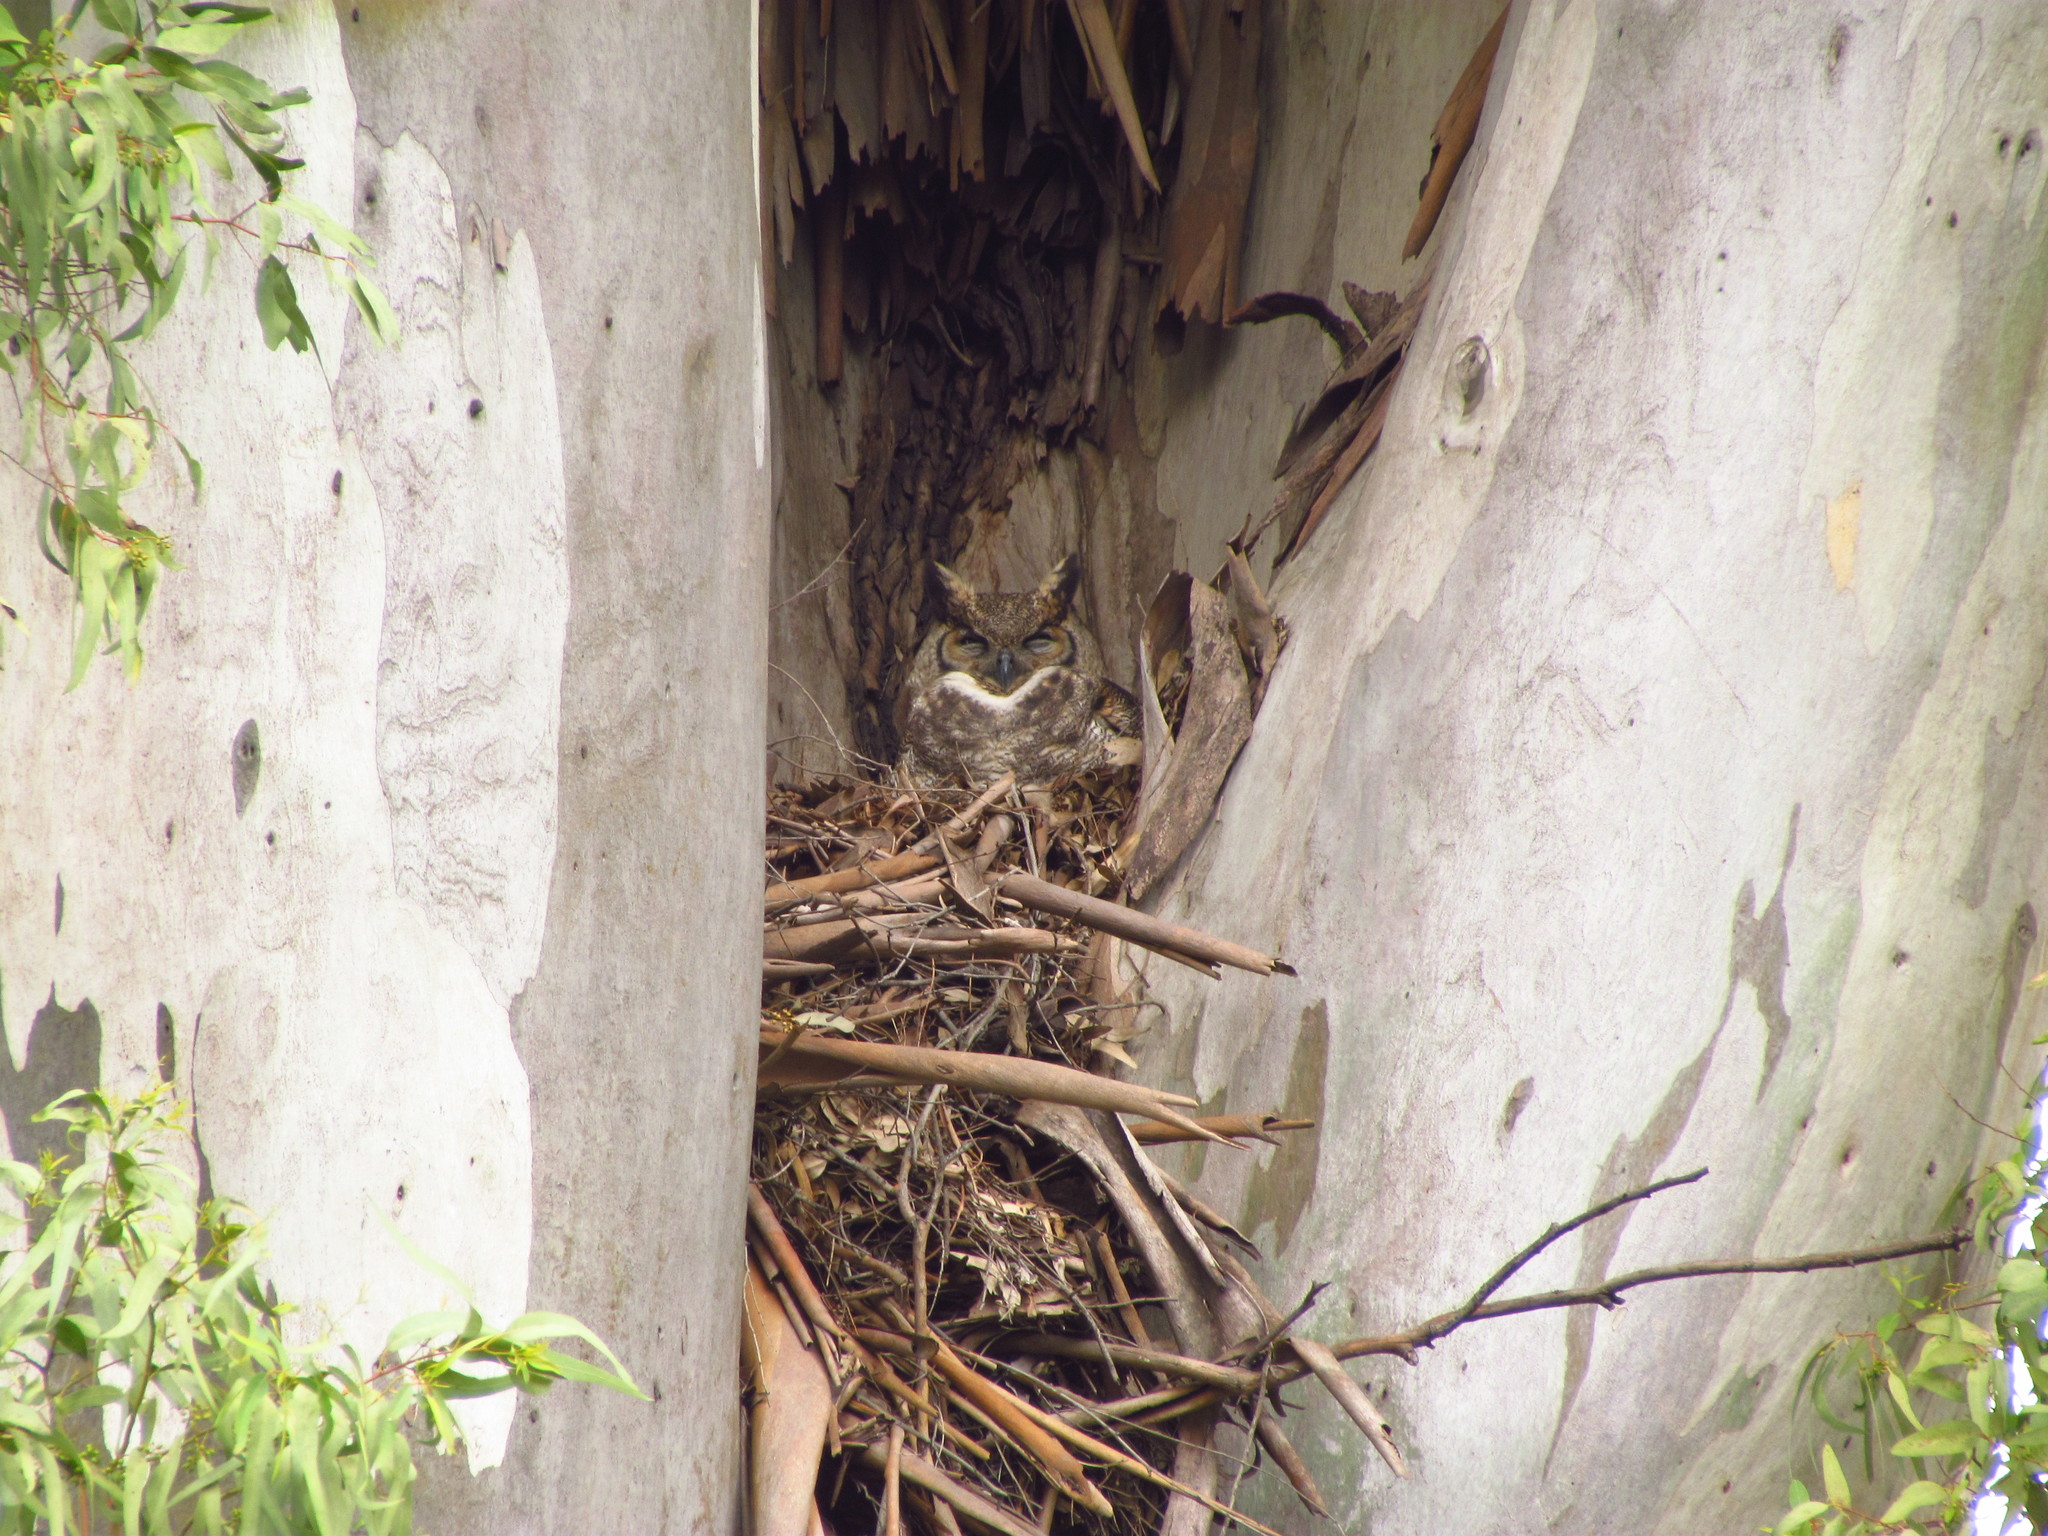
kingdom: Animalia
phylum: Chordata
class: Aves
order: Strigiformes
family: Strigidae
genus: Bubo
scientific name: Bubo virginianus
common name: Great horned owl
